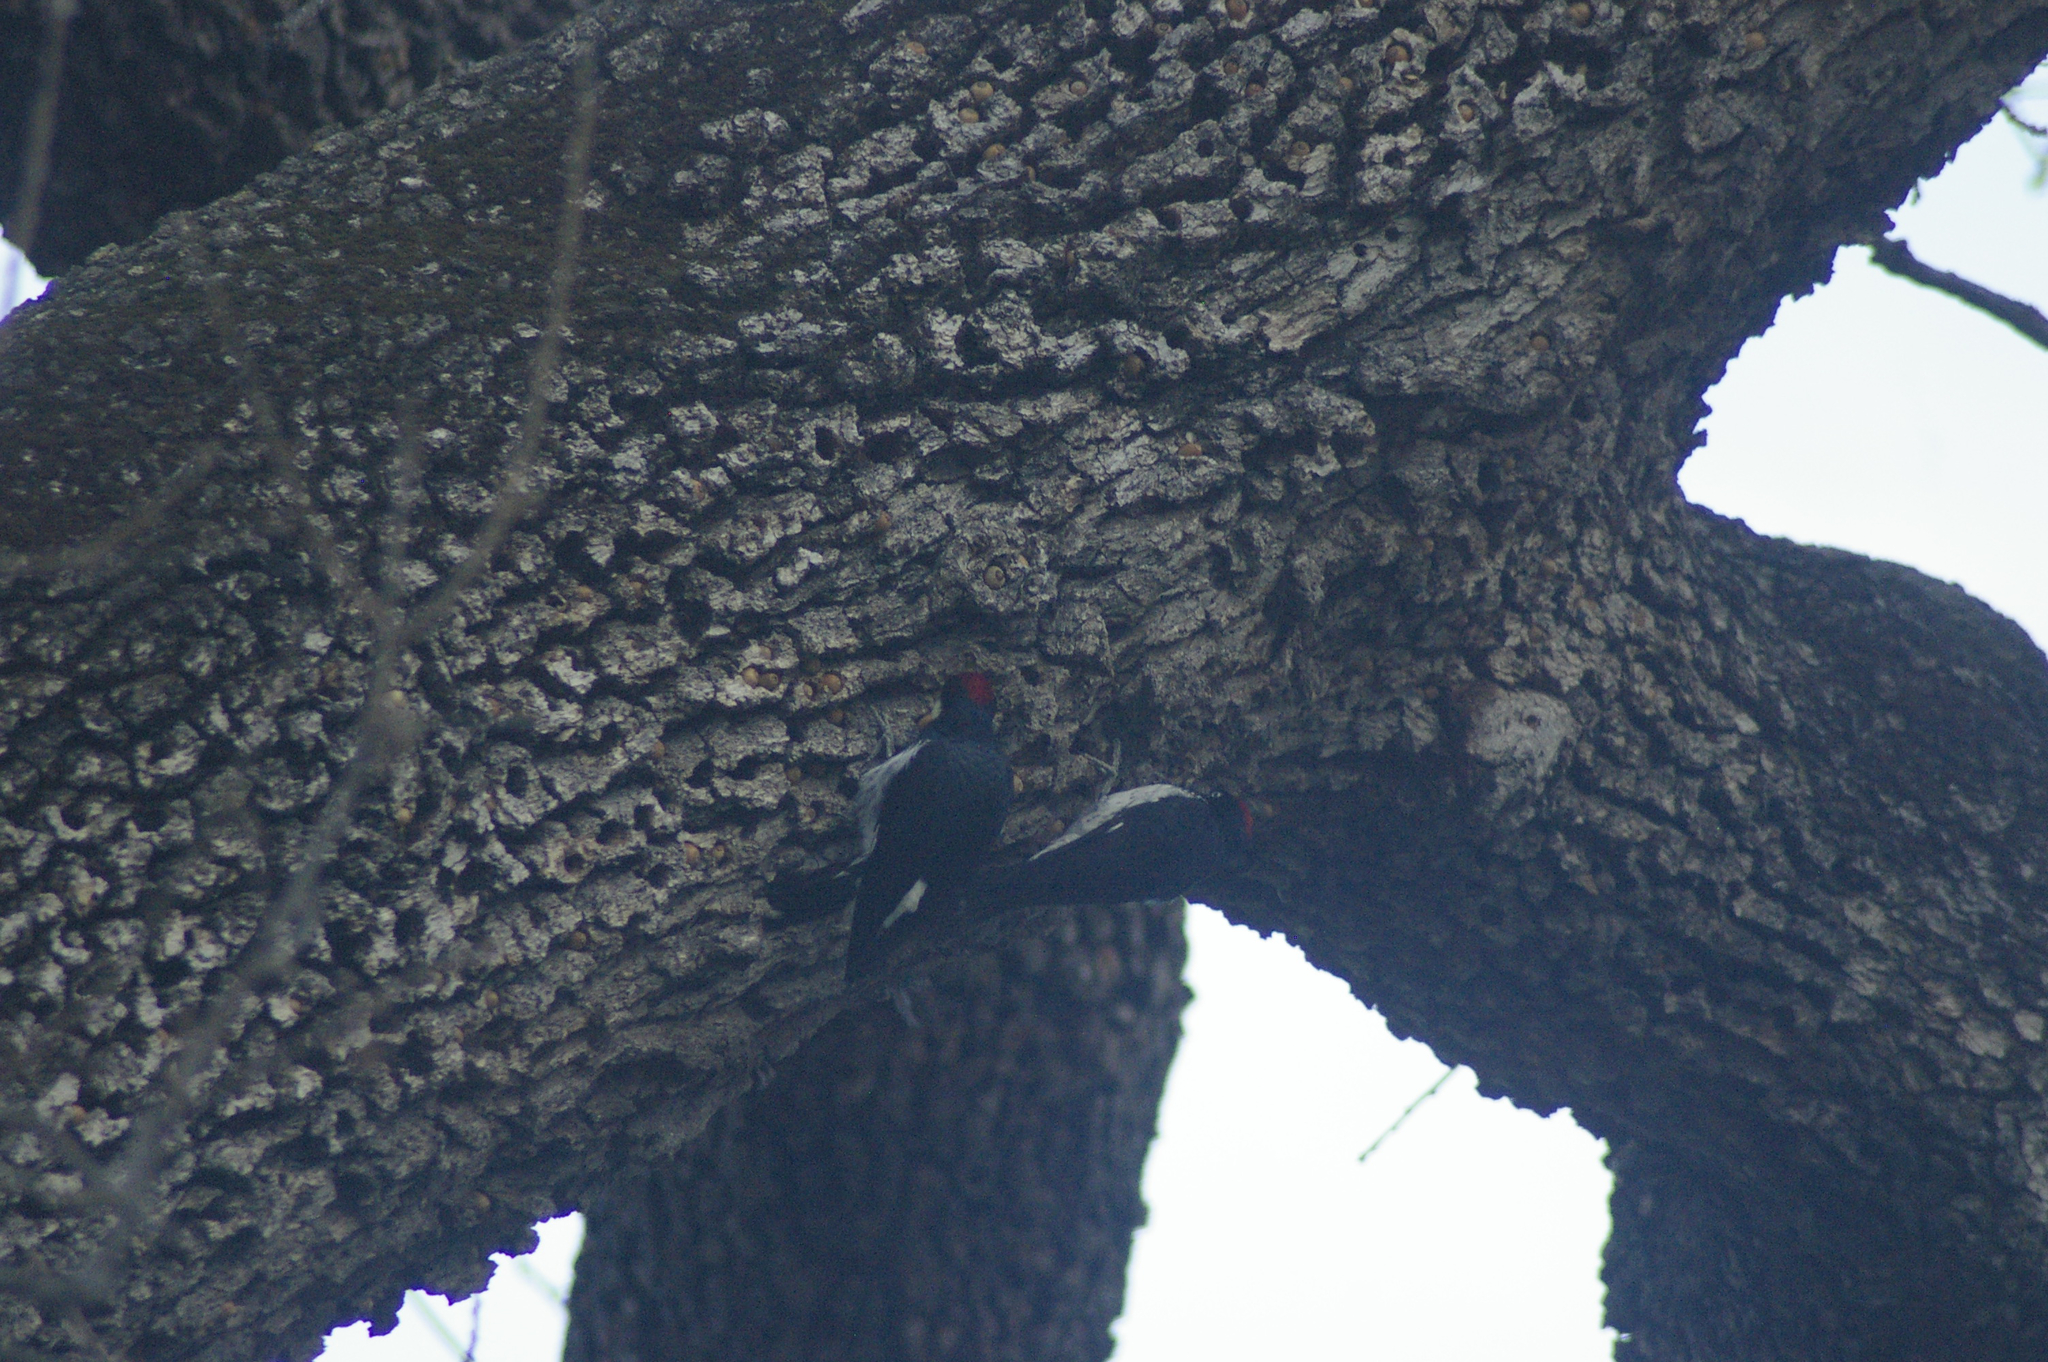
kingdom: Animalia
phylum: Chordata
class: Aves
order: Piciformes
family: Picidae
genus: Melanerpes
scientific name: Melanerpes formicivorus
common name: Acorn woodpecker
